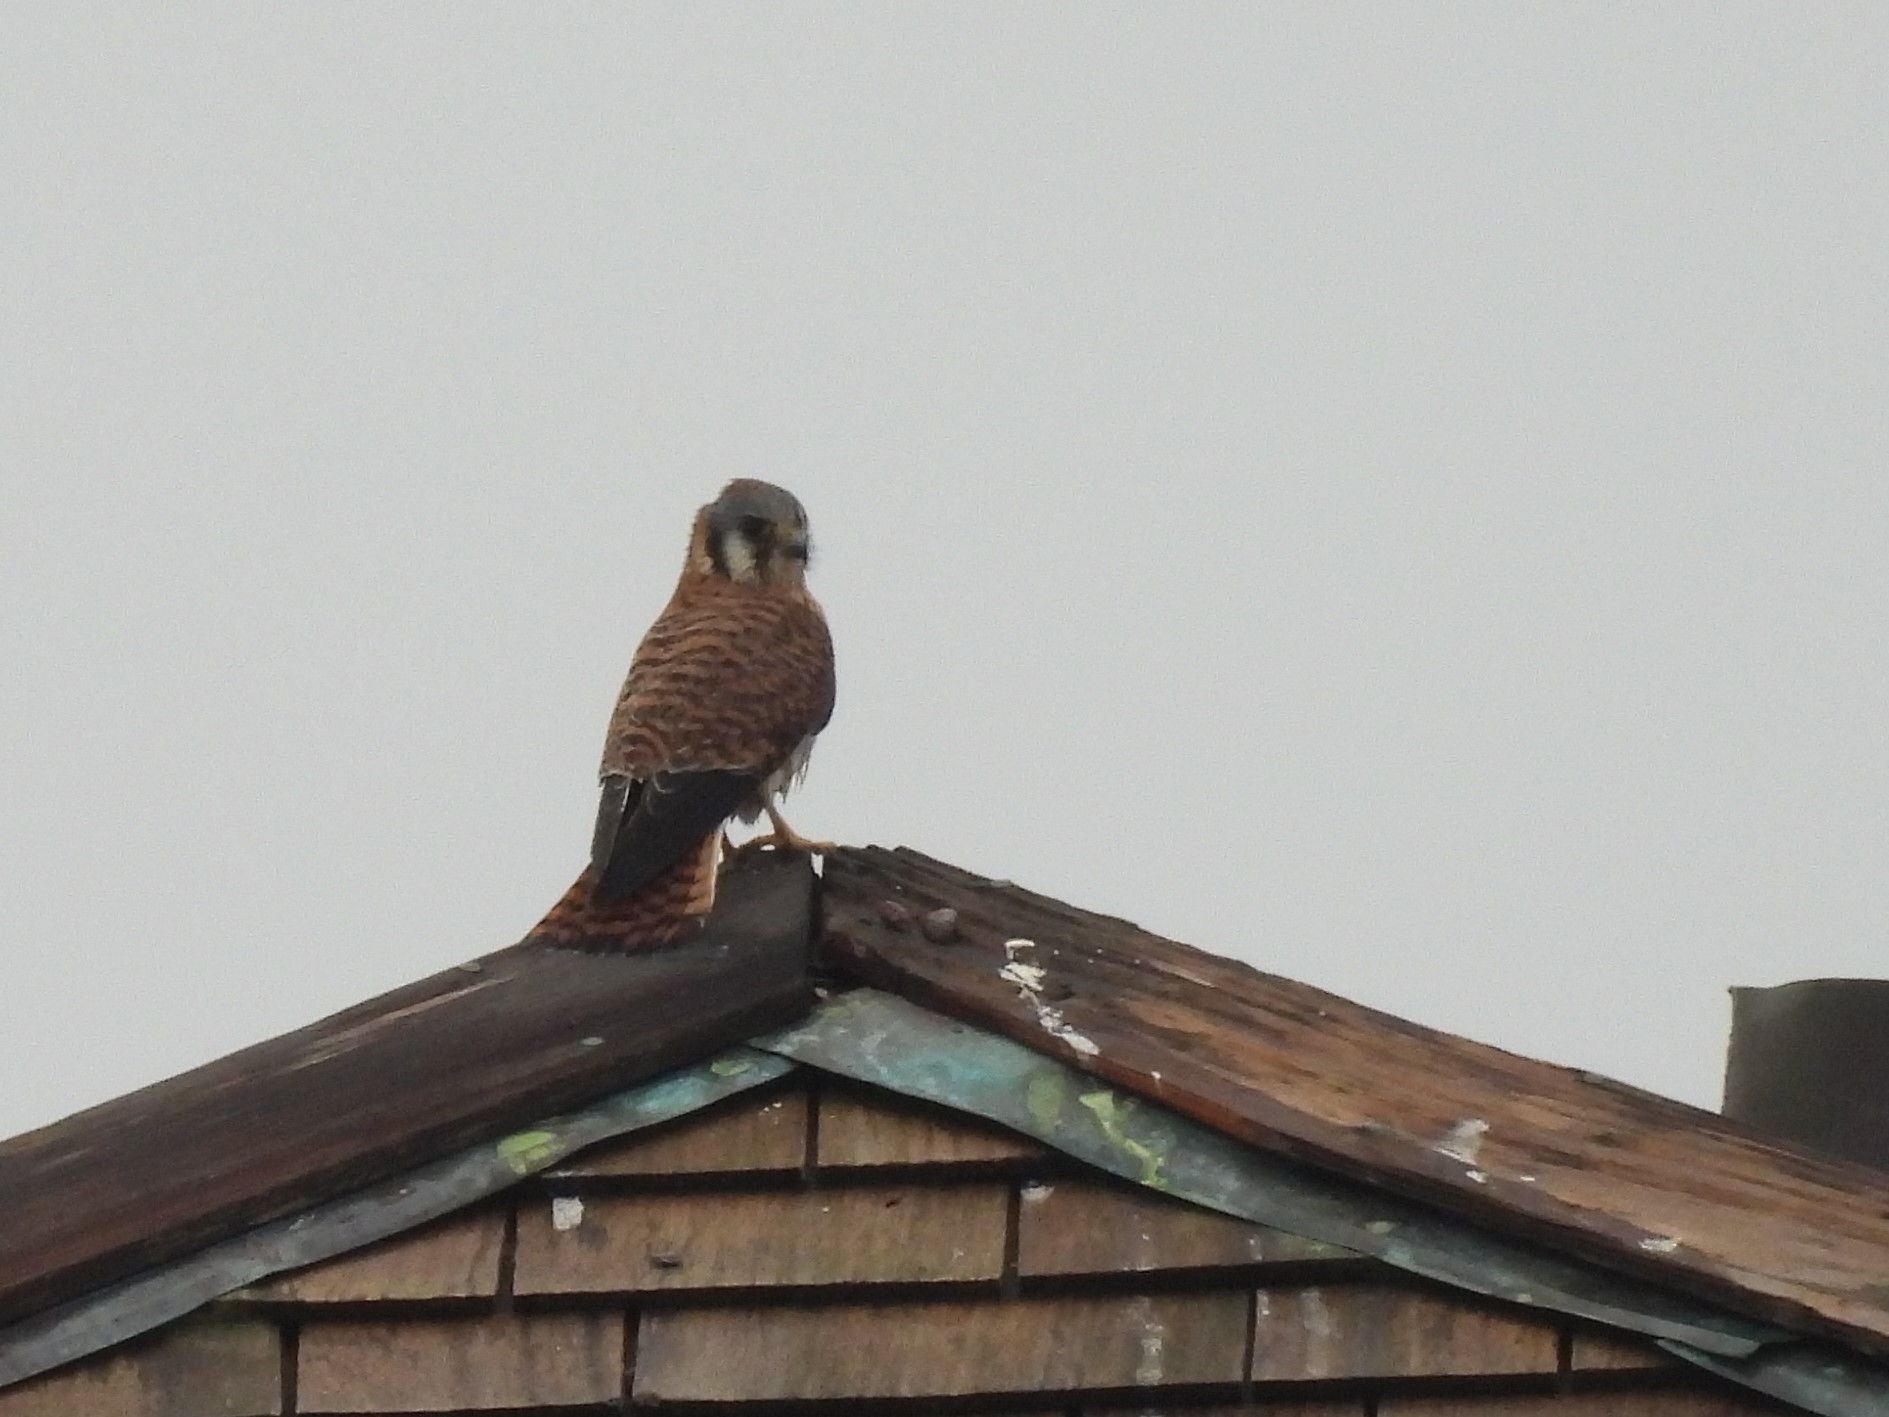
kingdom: Animalia
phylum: Chordata
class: Aves
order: Falconiformes
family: Falconidae
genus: Falco
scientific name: Falco sparverius
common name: American kestrel
